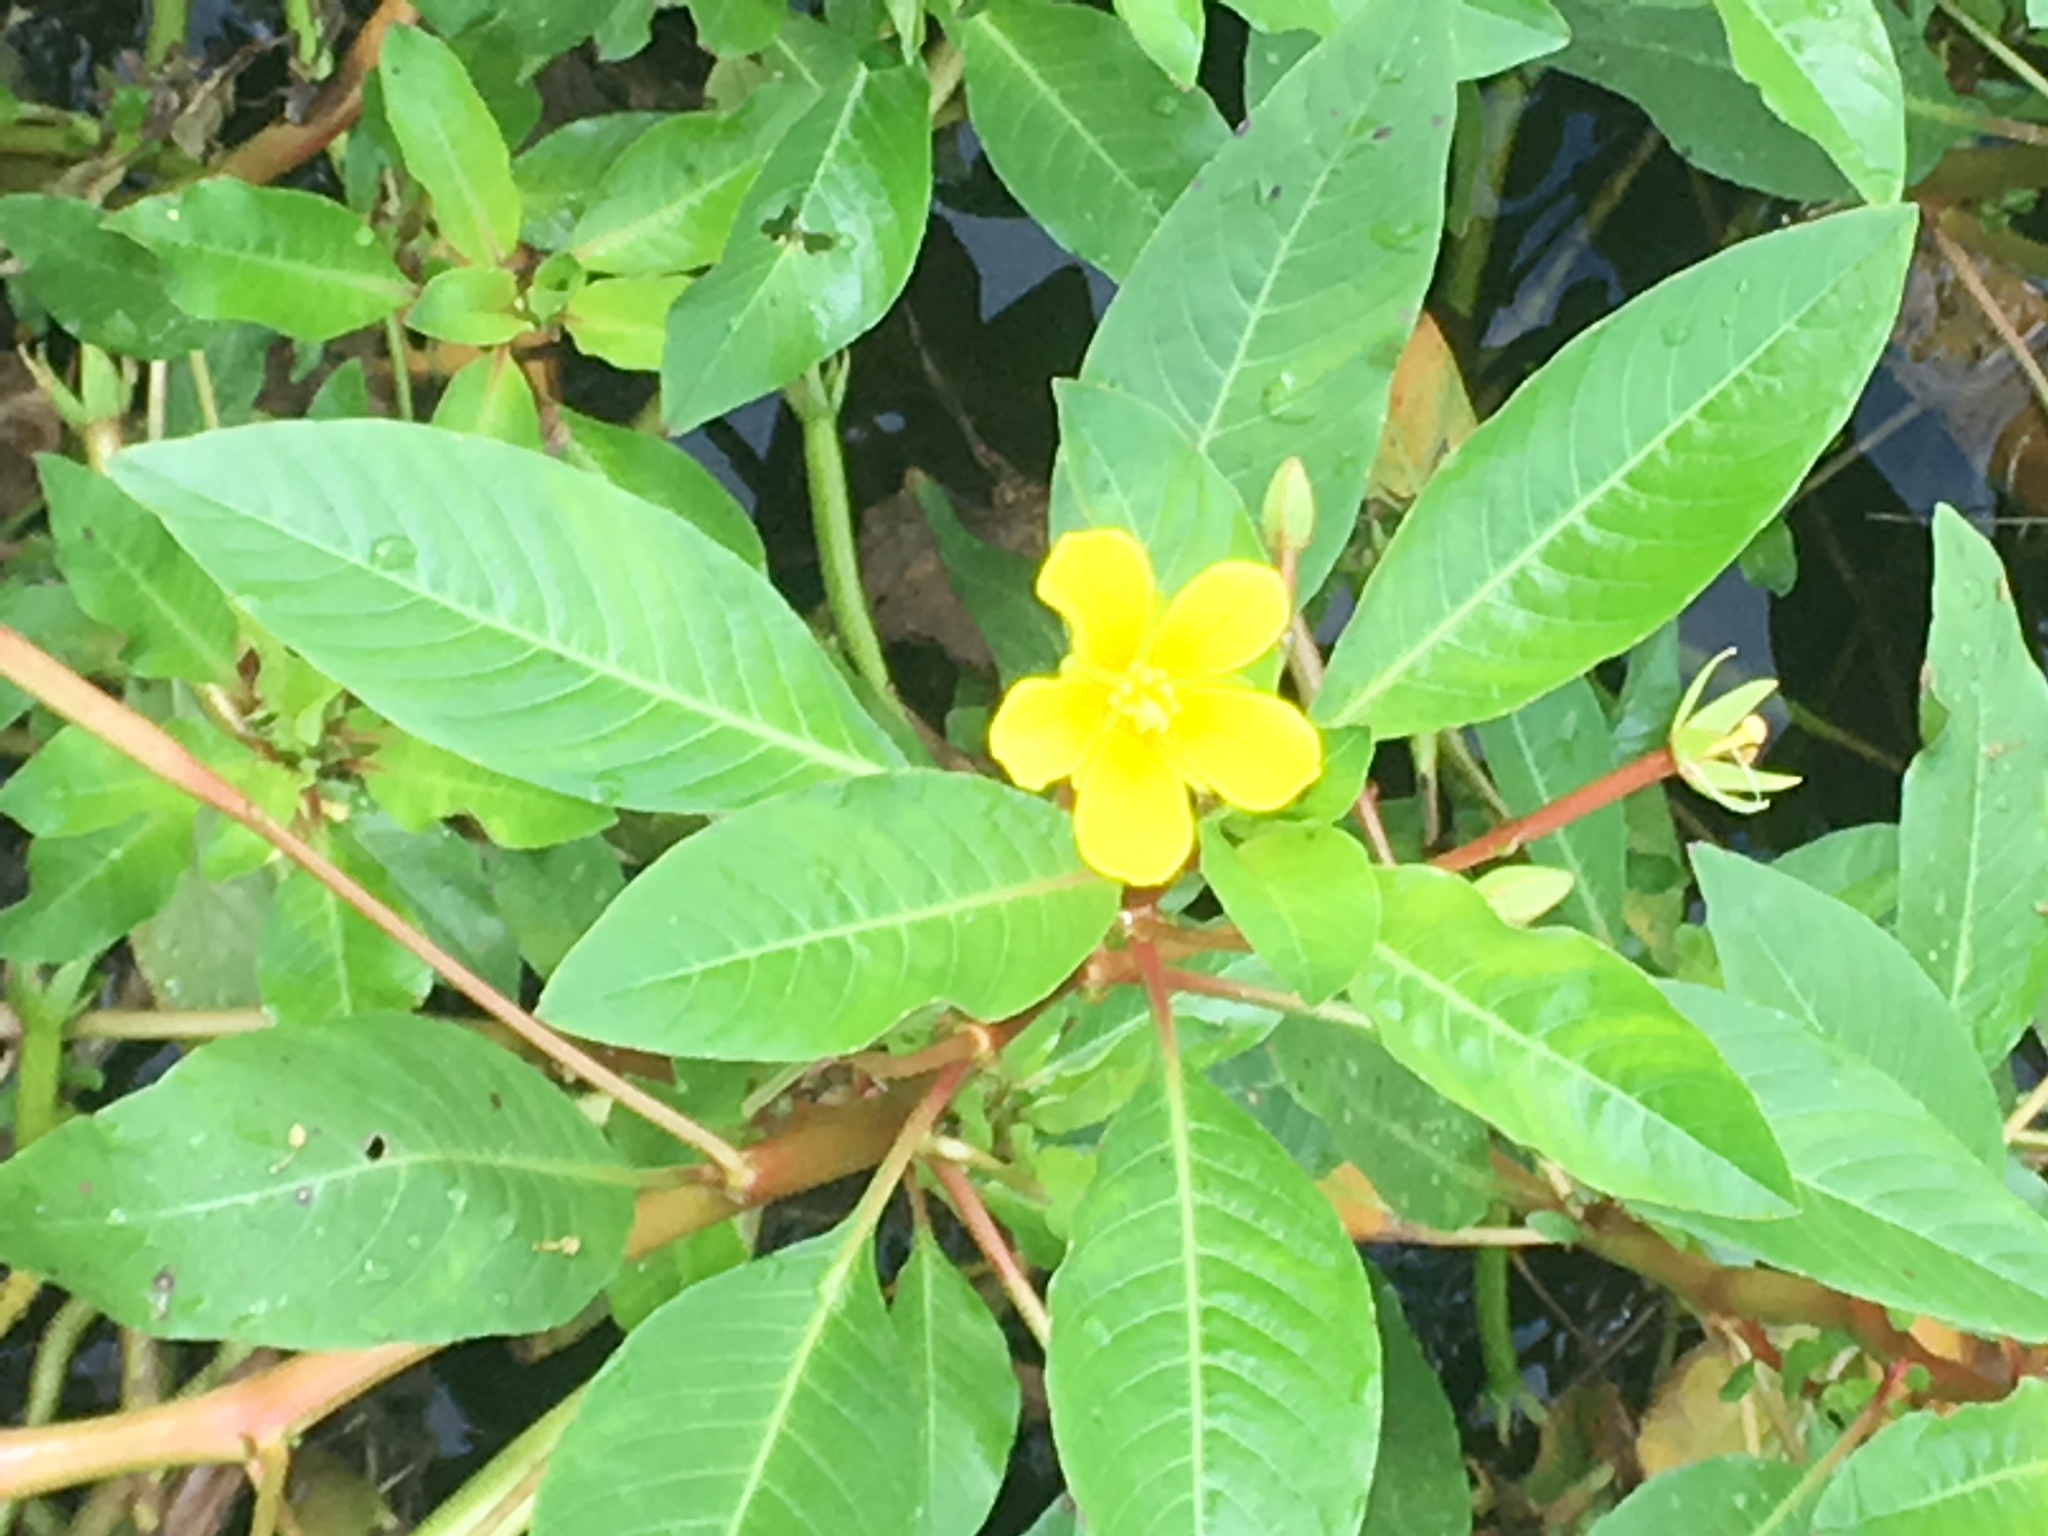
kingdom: Plantae
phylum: Tracheophyta
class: Magnoliopsida
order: Myrtales
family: Onagraceae
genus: Ludwigia
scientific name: Ludwigia peploides
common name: Floating primrose-willow
